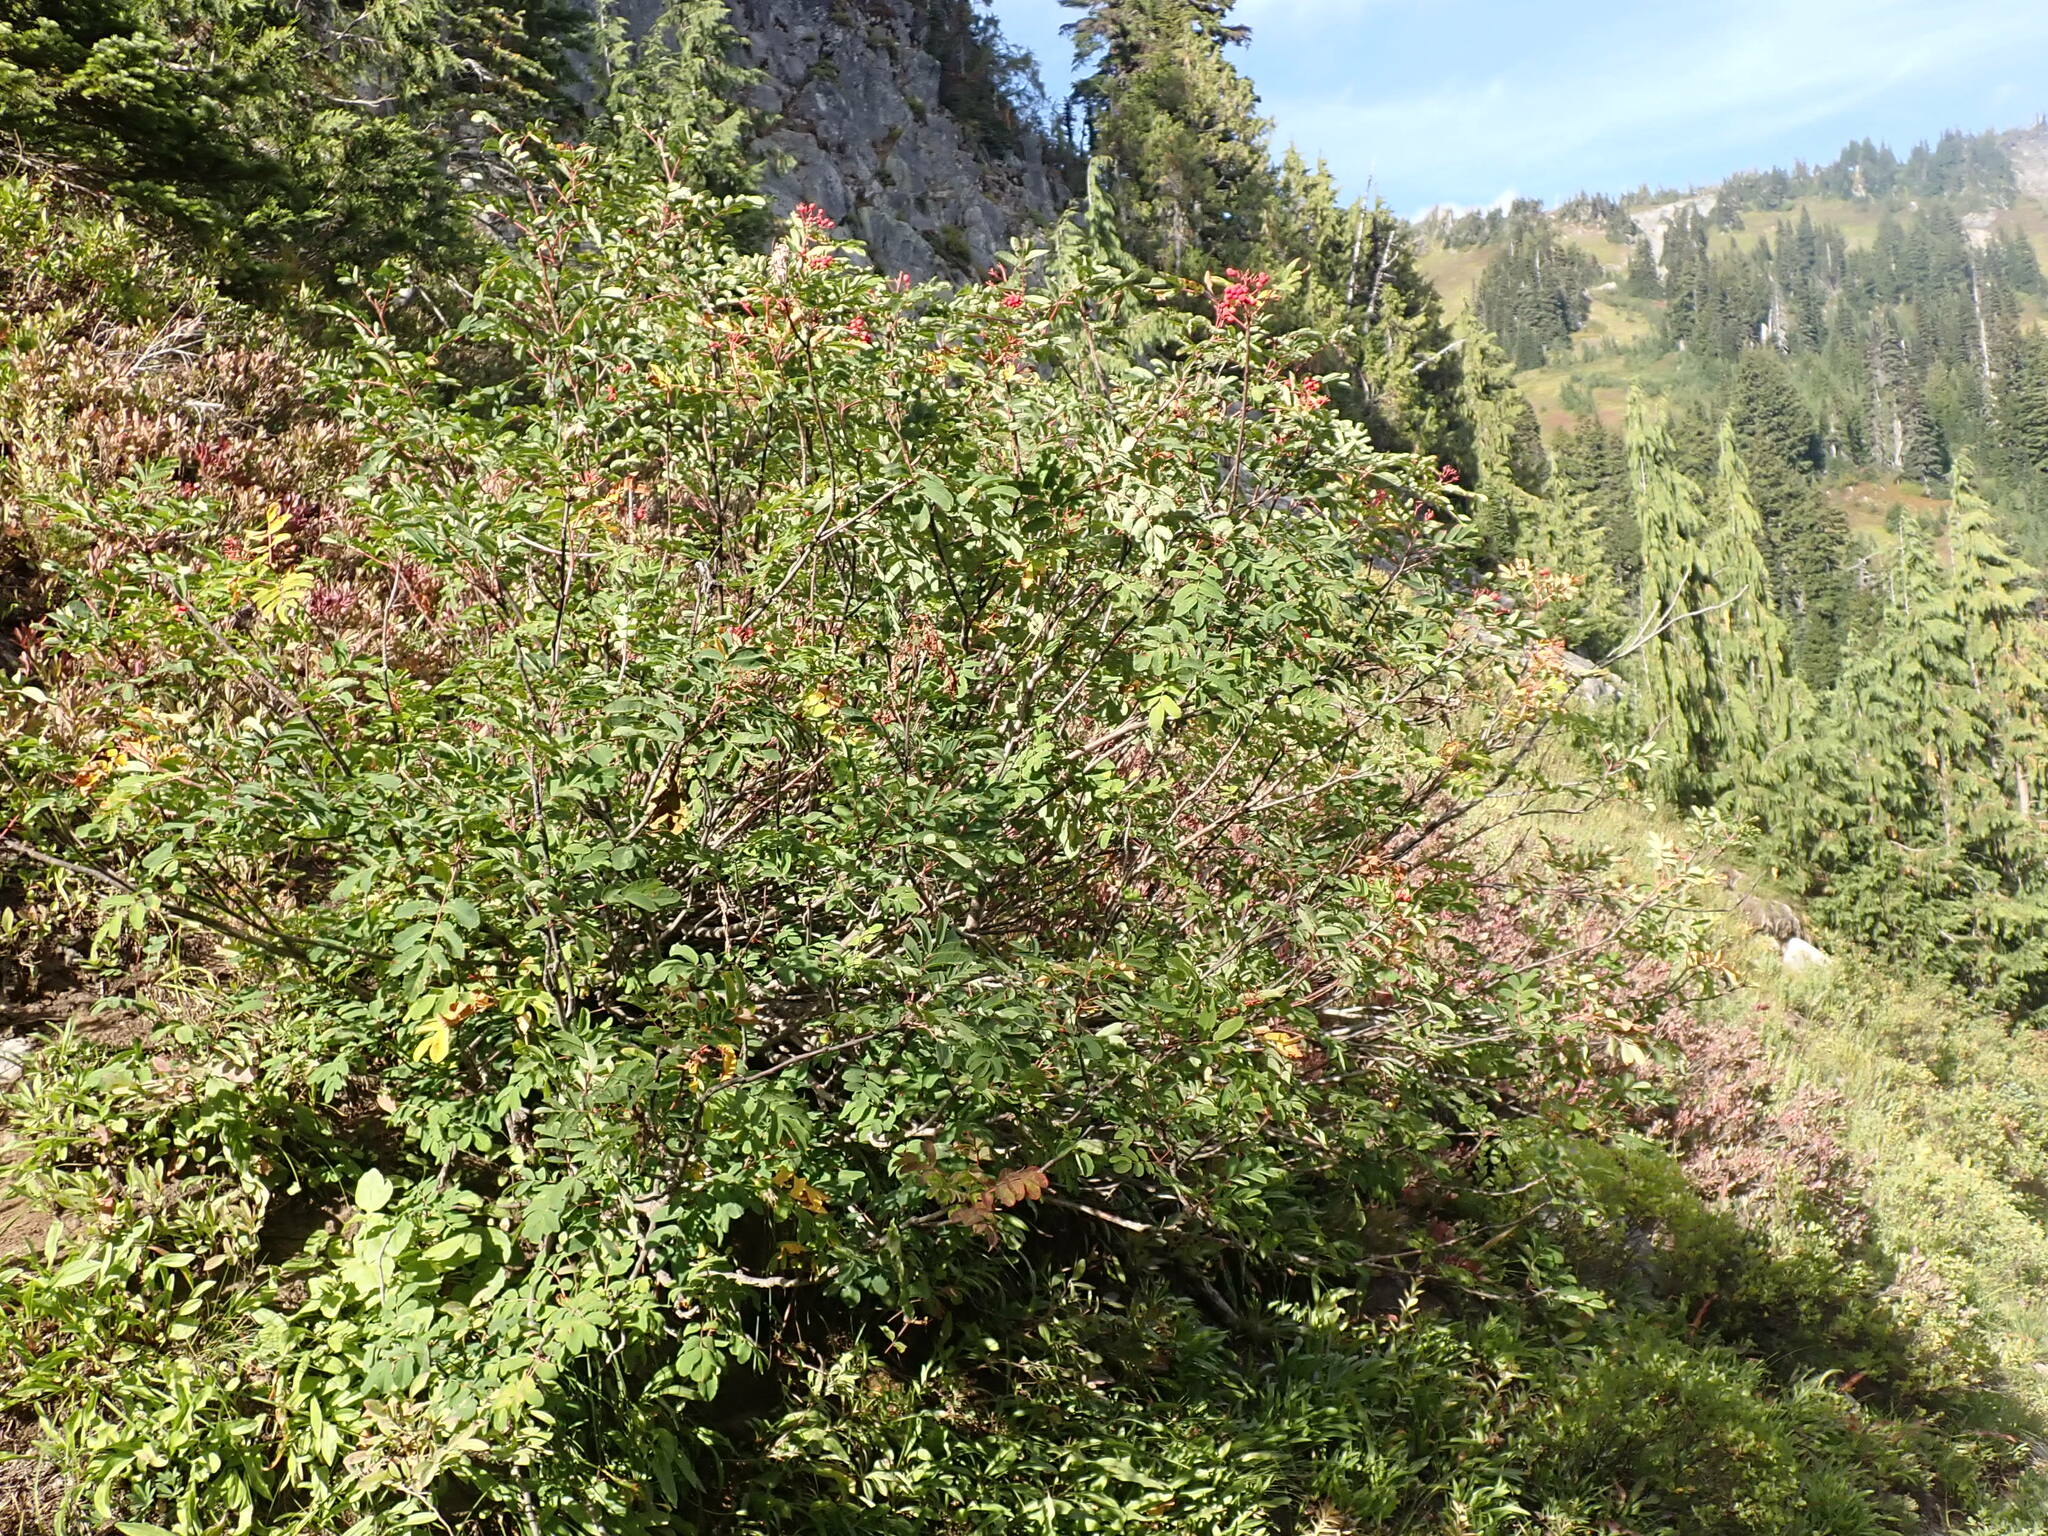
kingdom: Plantae
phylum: Tracheophyta
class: Magnoliopsida
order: Rosales
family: Rosaceae
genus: Sorbus
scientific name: Sorbus sitchensis
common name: Sitka mountain-ash
